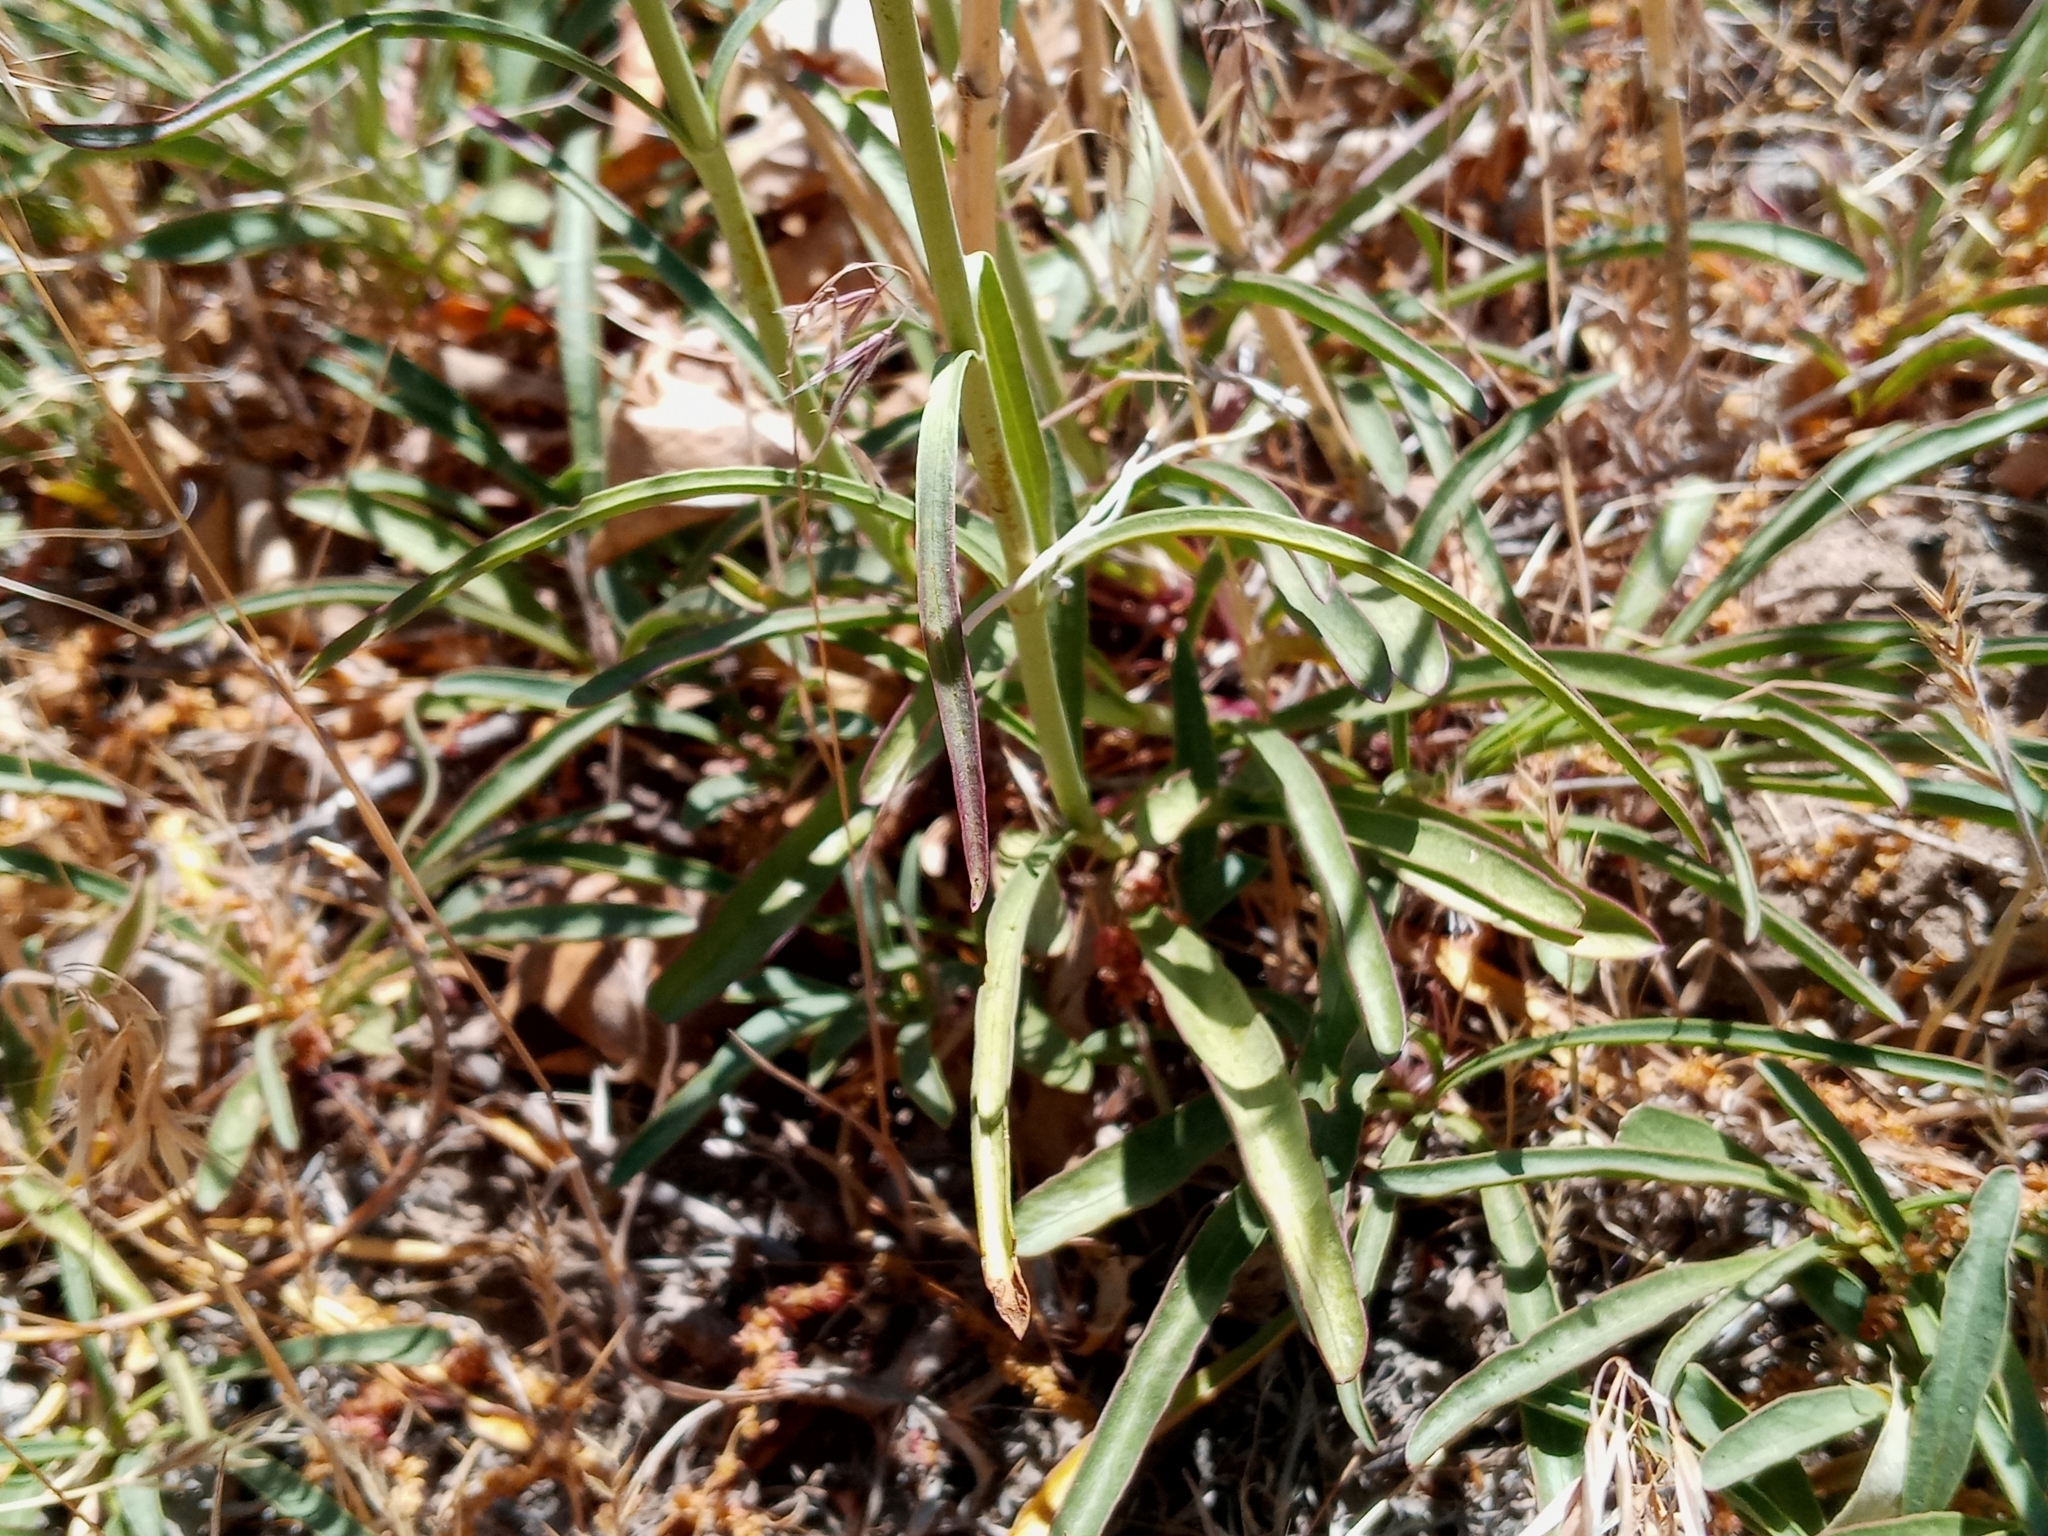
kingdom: Plantae
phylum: Tracheophyta
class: Magnoliopsida
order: Lamiales
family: Plantaginaceae
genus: Penstemon
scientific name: Penstemon labrosus
